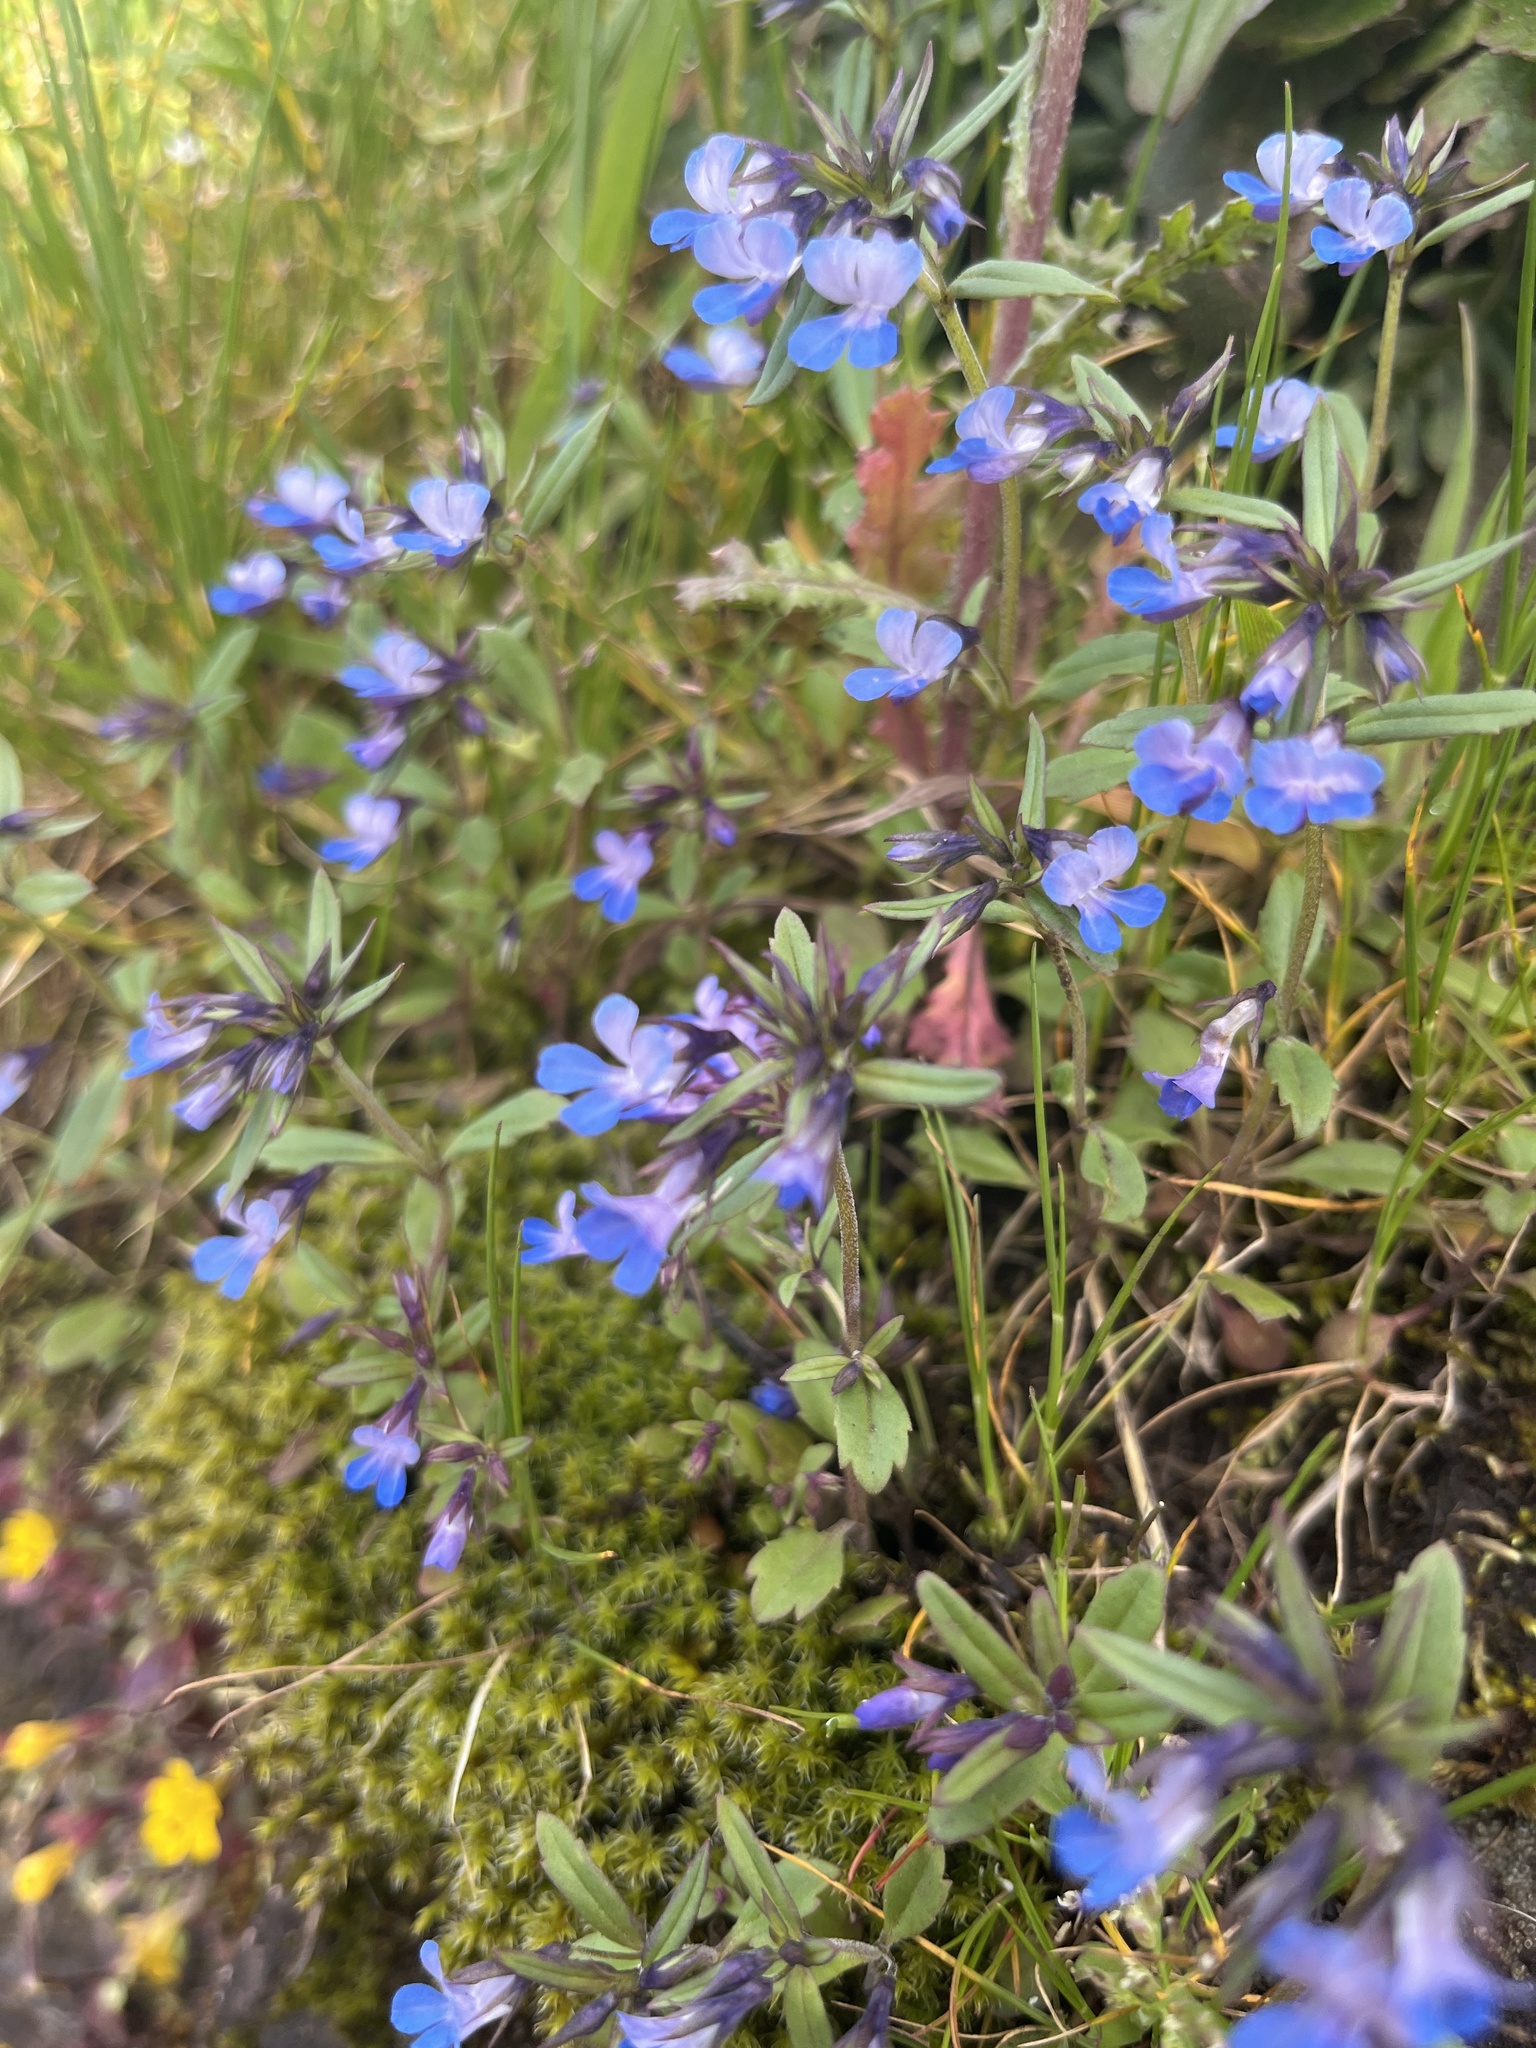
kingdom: Plantae
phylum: Tracheophyta
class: Magnoliopsida
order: Lamiales
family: Plantaginaceae
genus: Collinsia
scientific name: Collinsia parviflora
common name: Blue-lips
